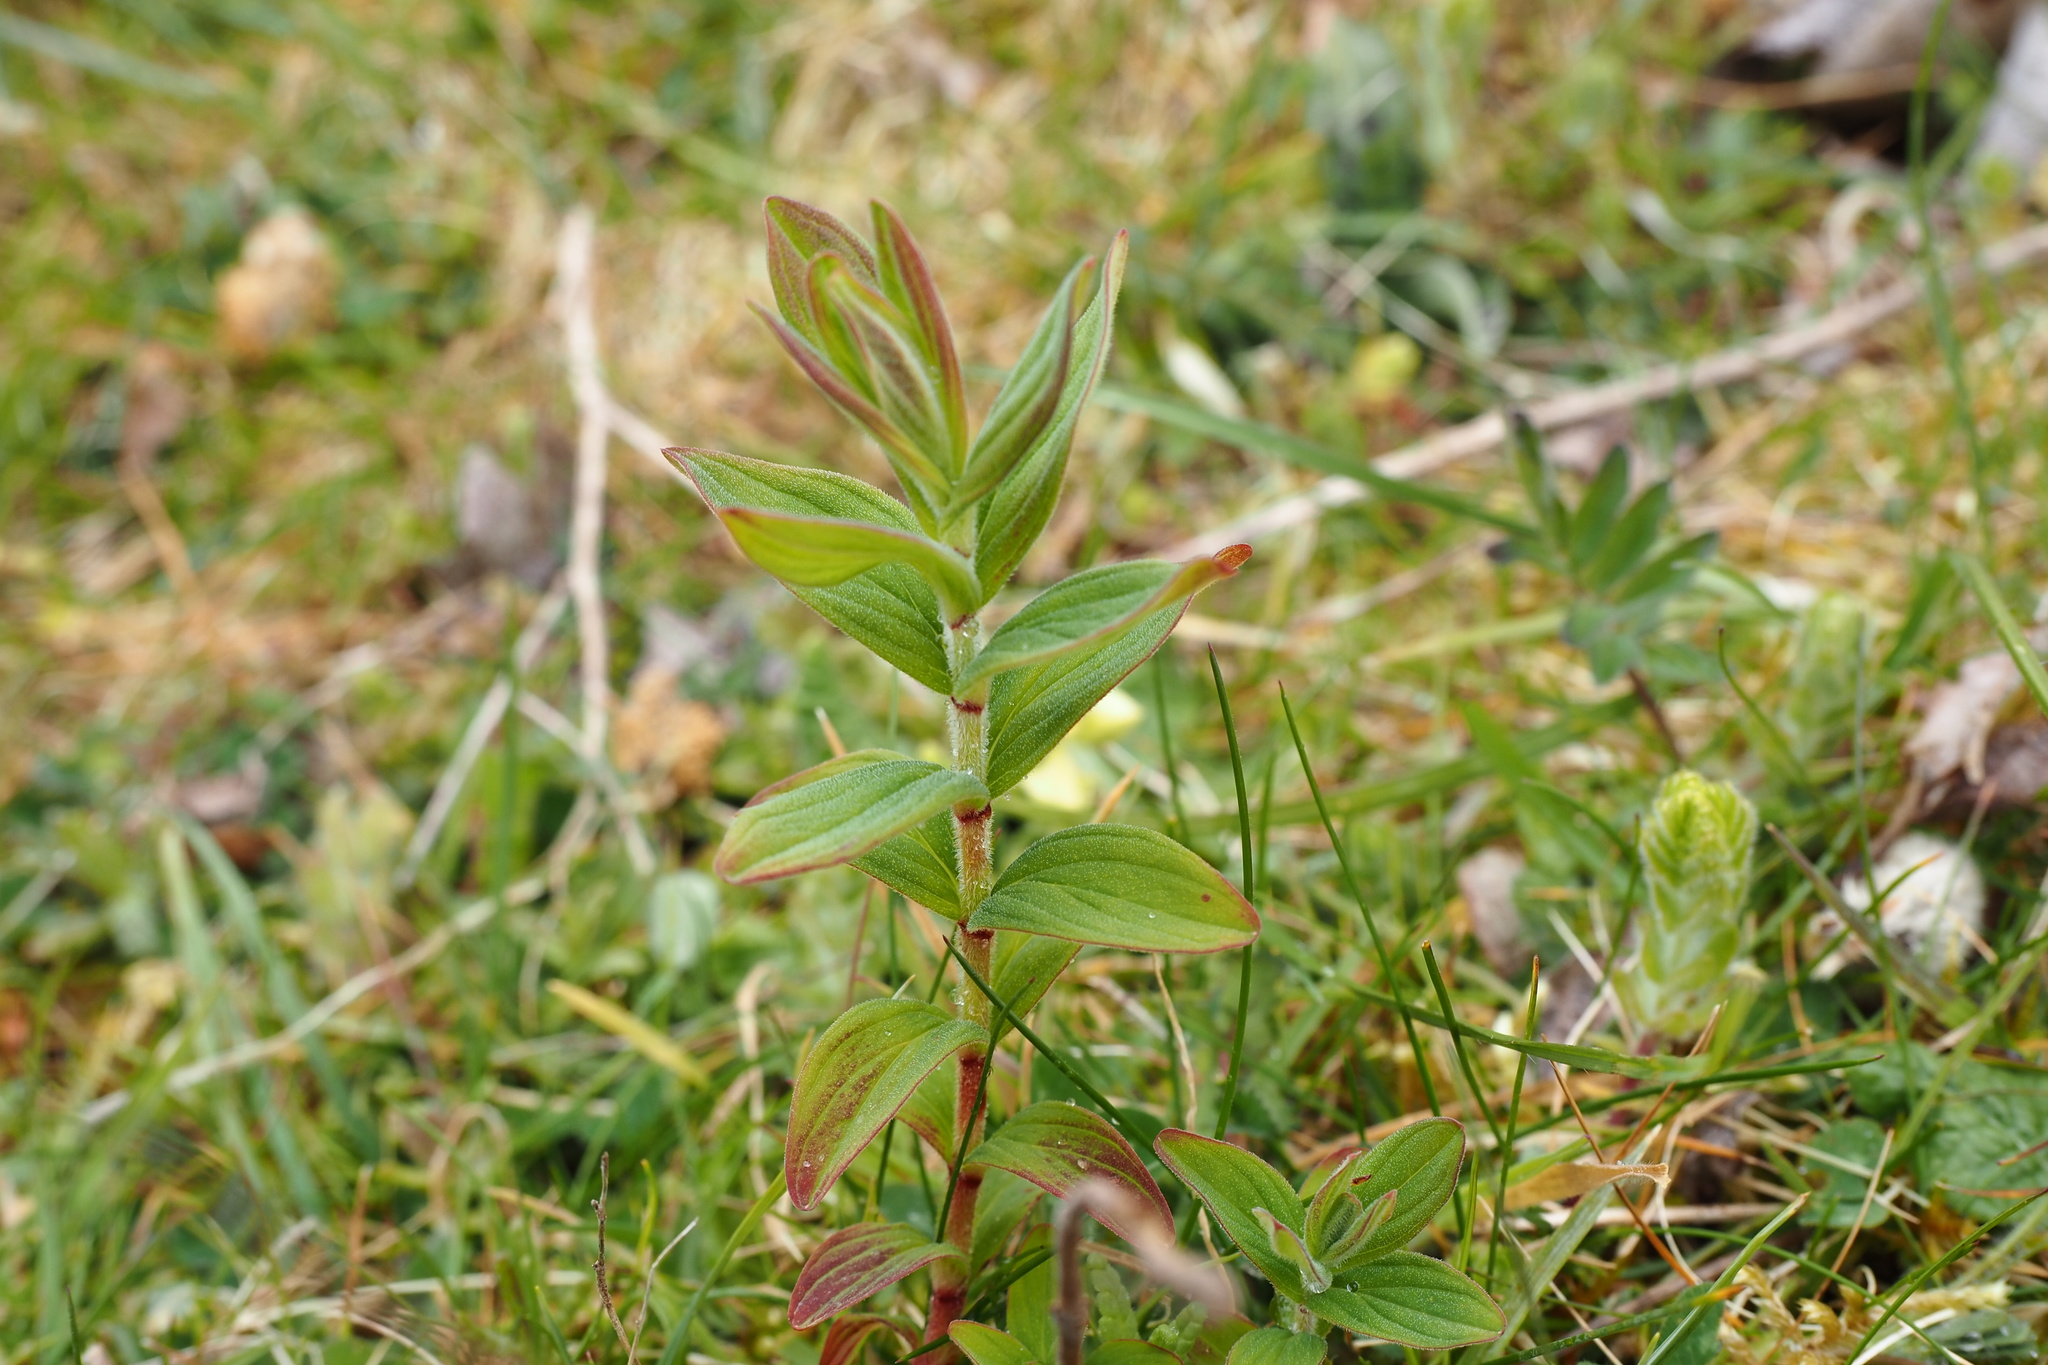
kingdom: Plantae
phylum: Tracheophyta
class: Magnoliopsida
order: Malpighiales
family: Hypericaceae
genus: Hypericum
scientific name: Hypericum hirsutum
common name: Hairy st. john's-wort
